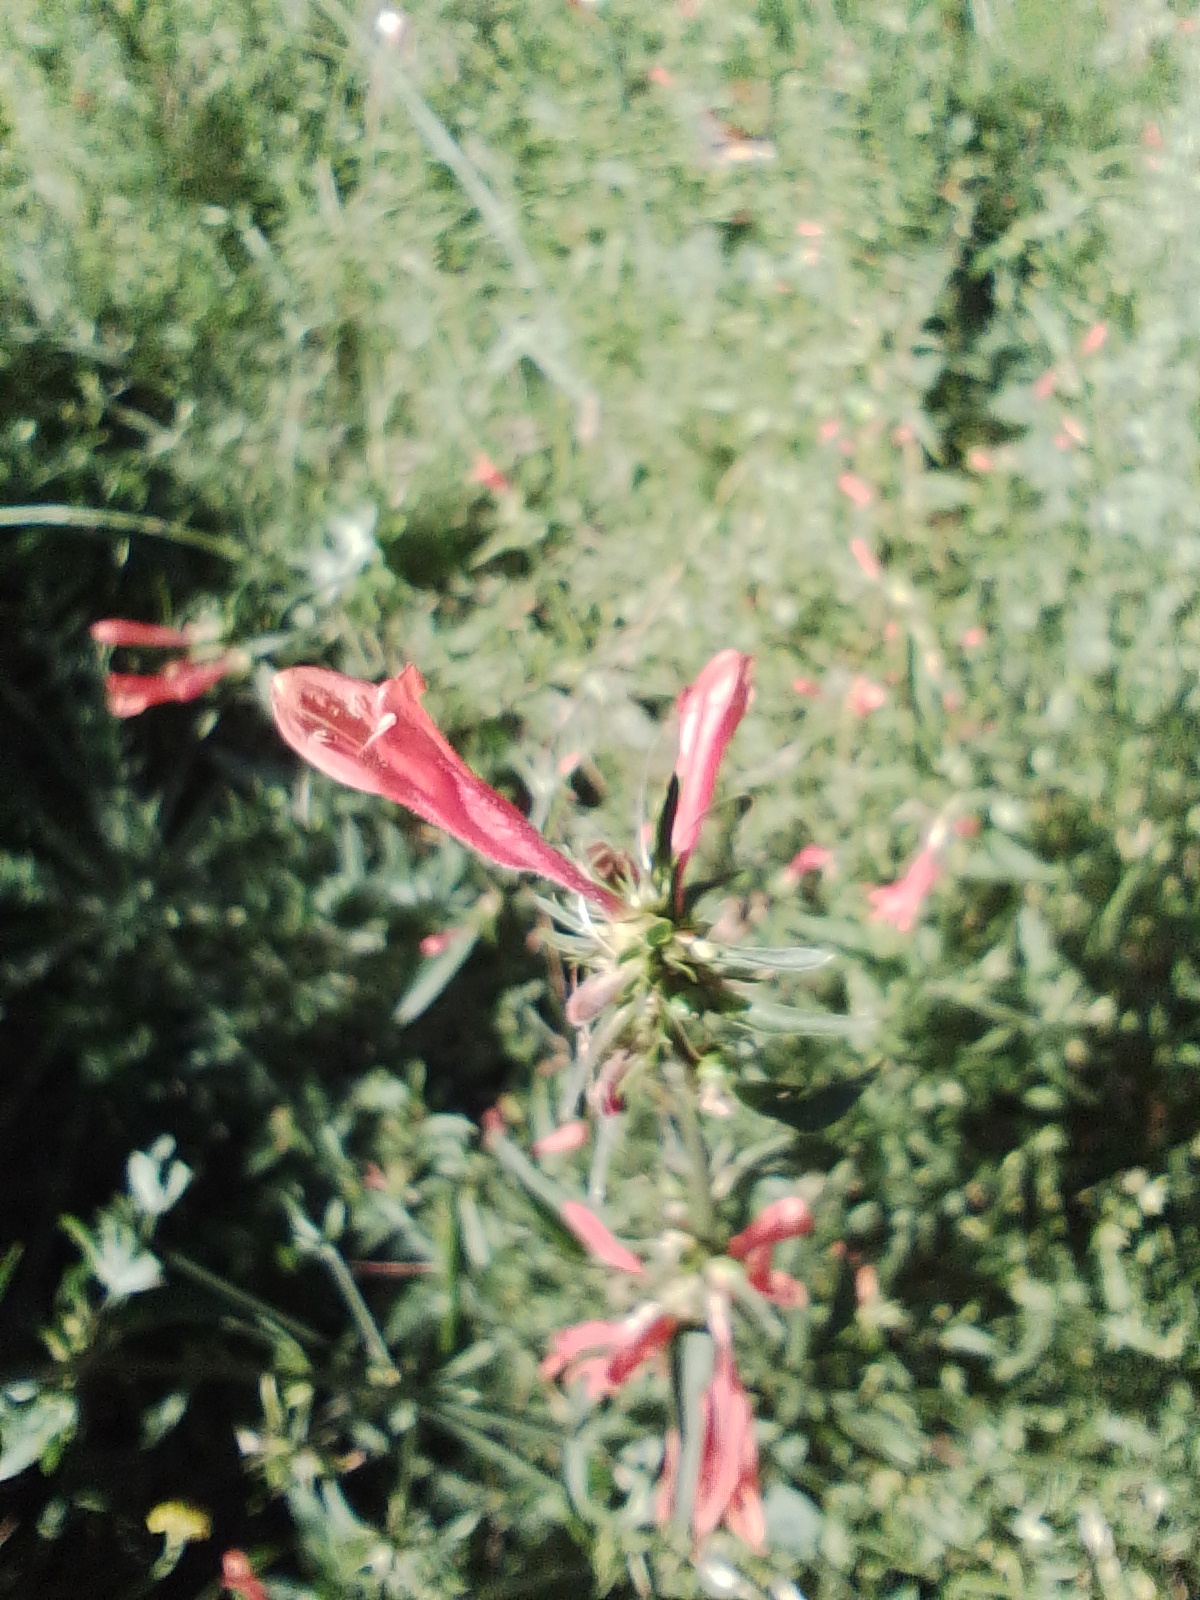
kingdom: Plantae
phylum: Tracheophyta
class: Magnoliopsida
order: Lamiales
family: Acanthaceae
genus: Dicliptera
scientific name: Dicliptera squarrosa
